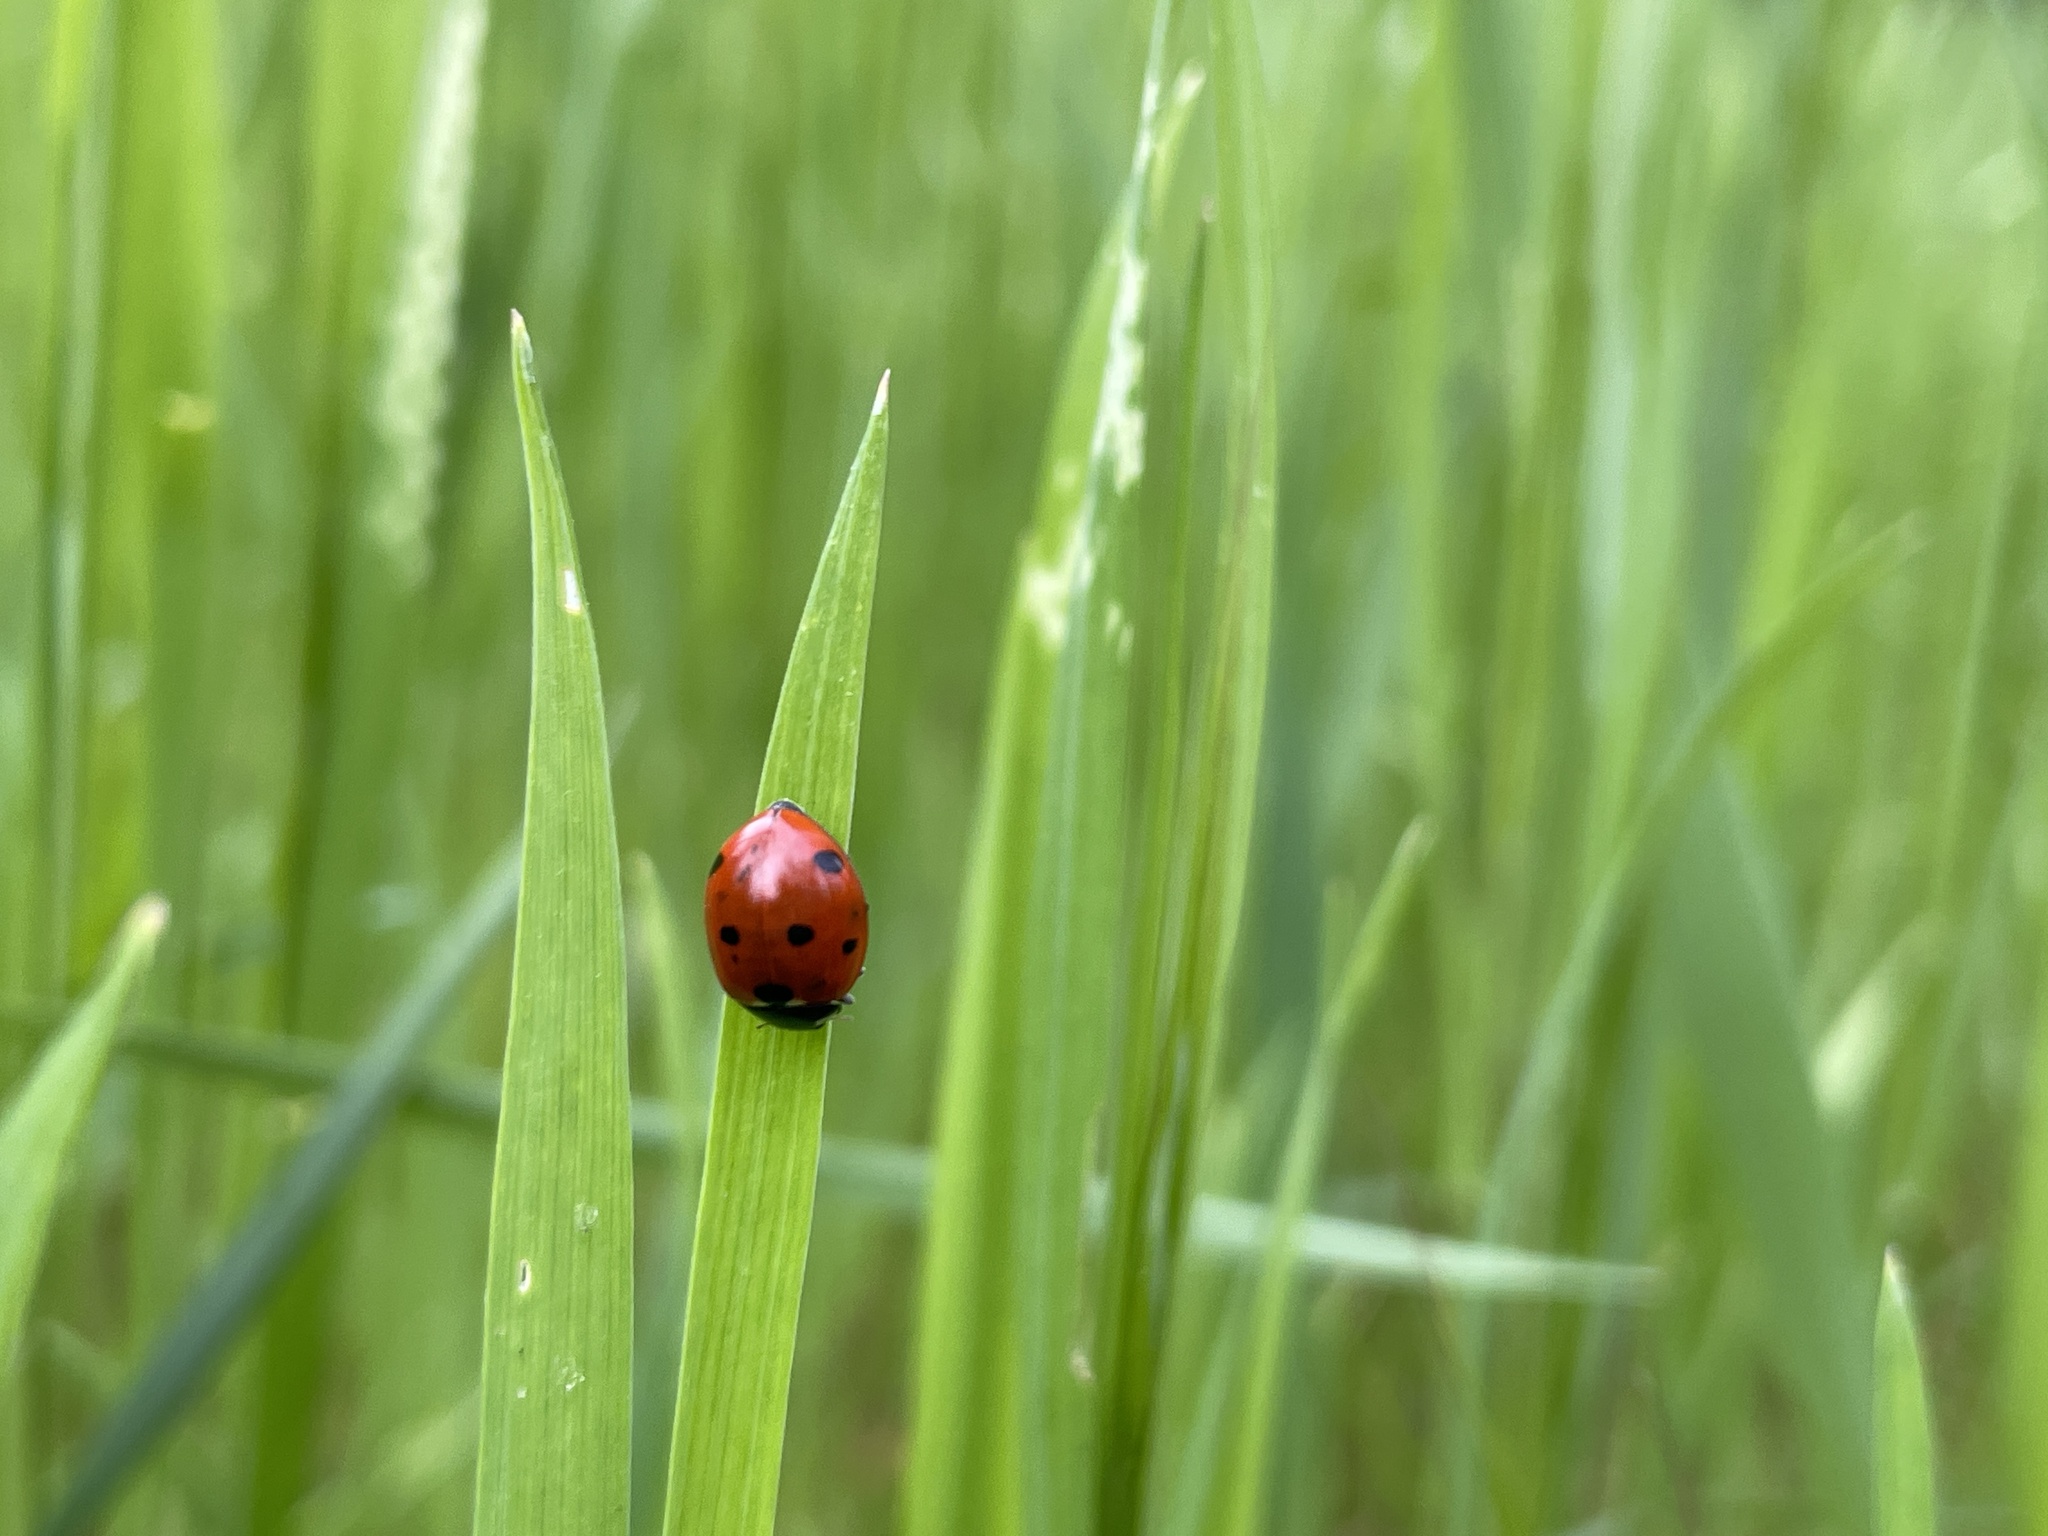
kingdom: Animalia
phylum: Arthropoda
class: Insecta
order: Coleoptera
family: Coccinellidae
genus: Coccinella
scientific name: Coccinella septempunctata
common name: Sevenspotted lady beetle
